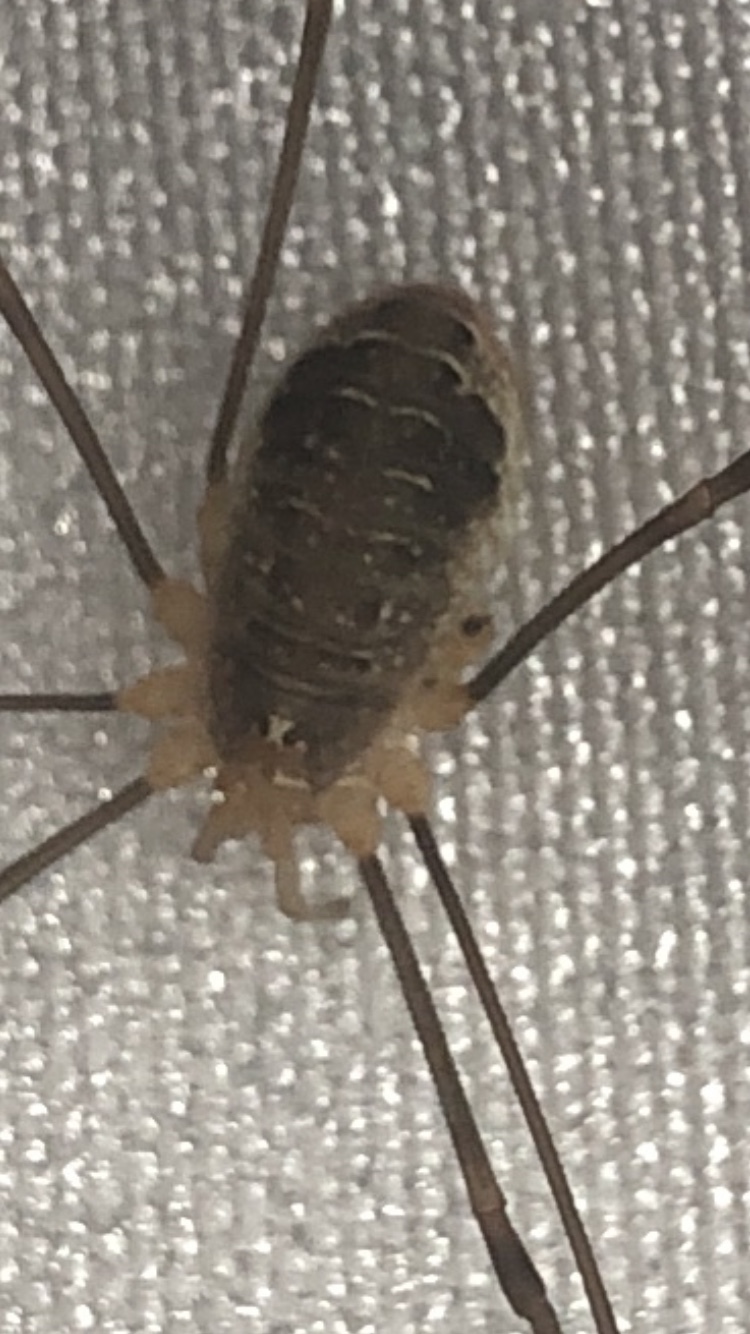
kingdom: Animalia
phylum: Arthropoda
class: Arachnida
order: Opiliones
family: Phalangiidae
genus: Opilio
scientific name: Opilio canestrinii
